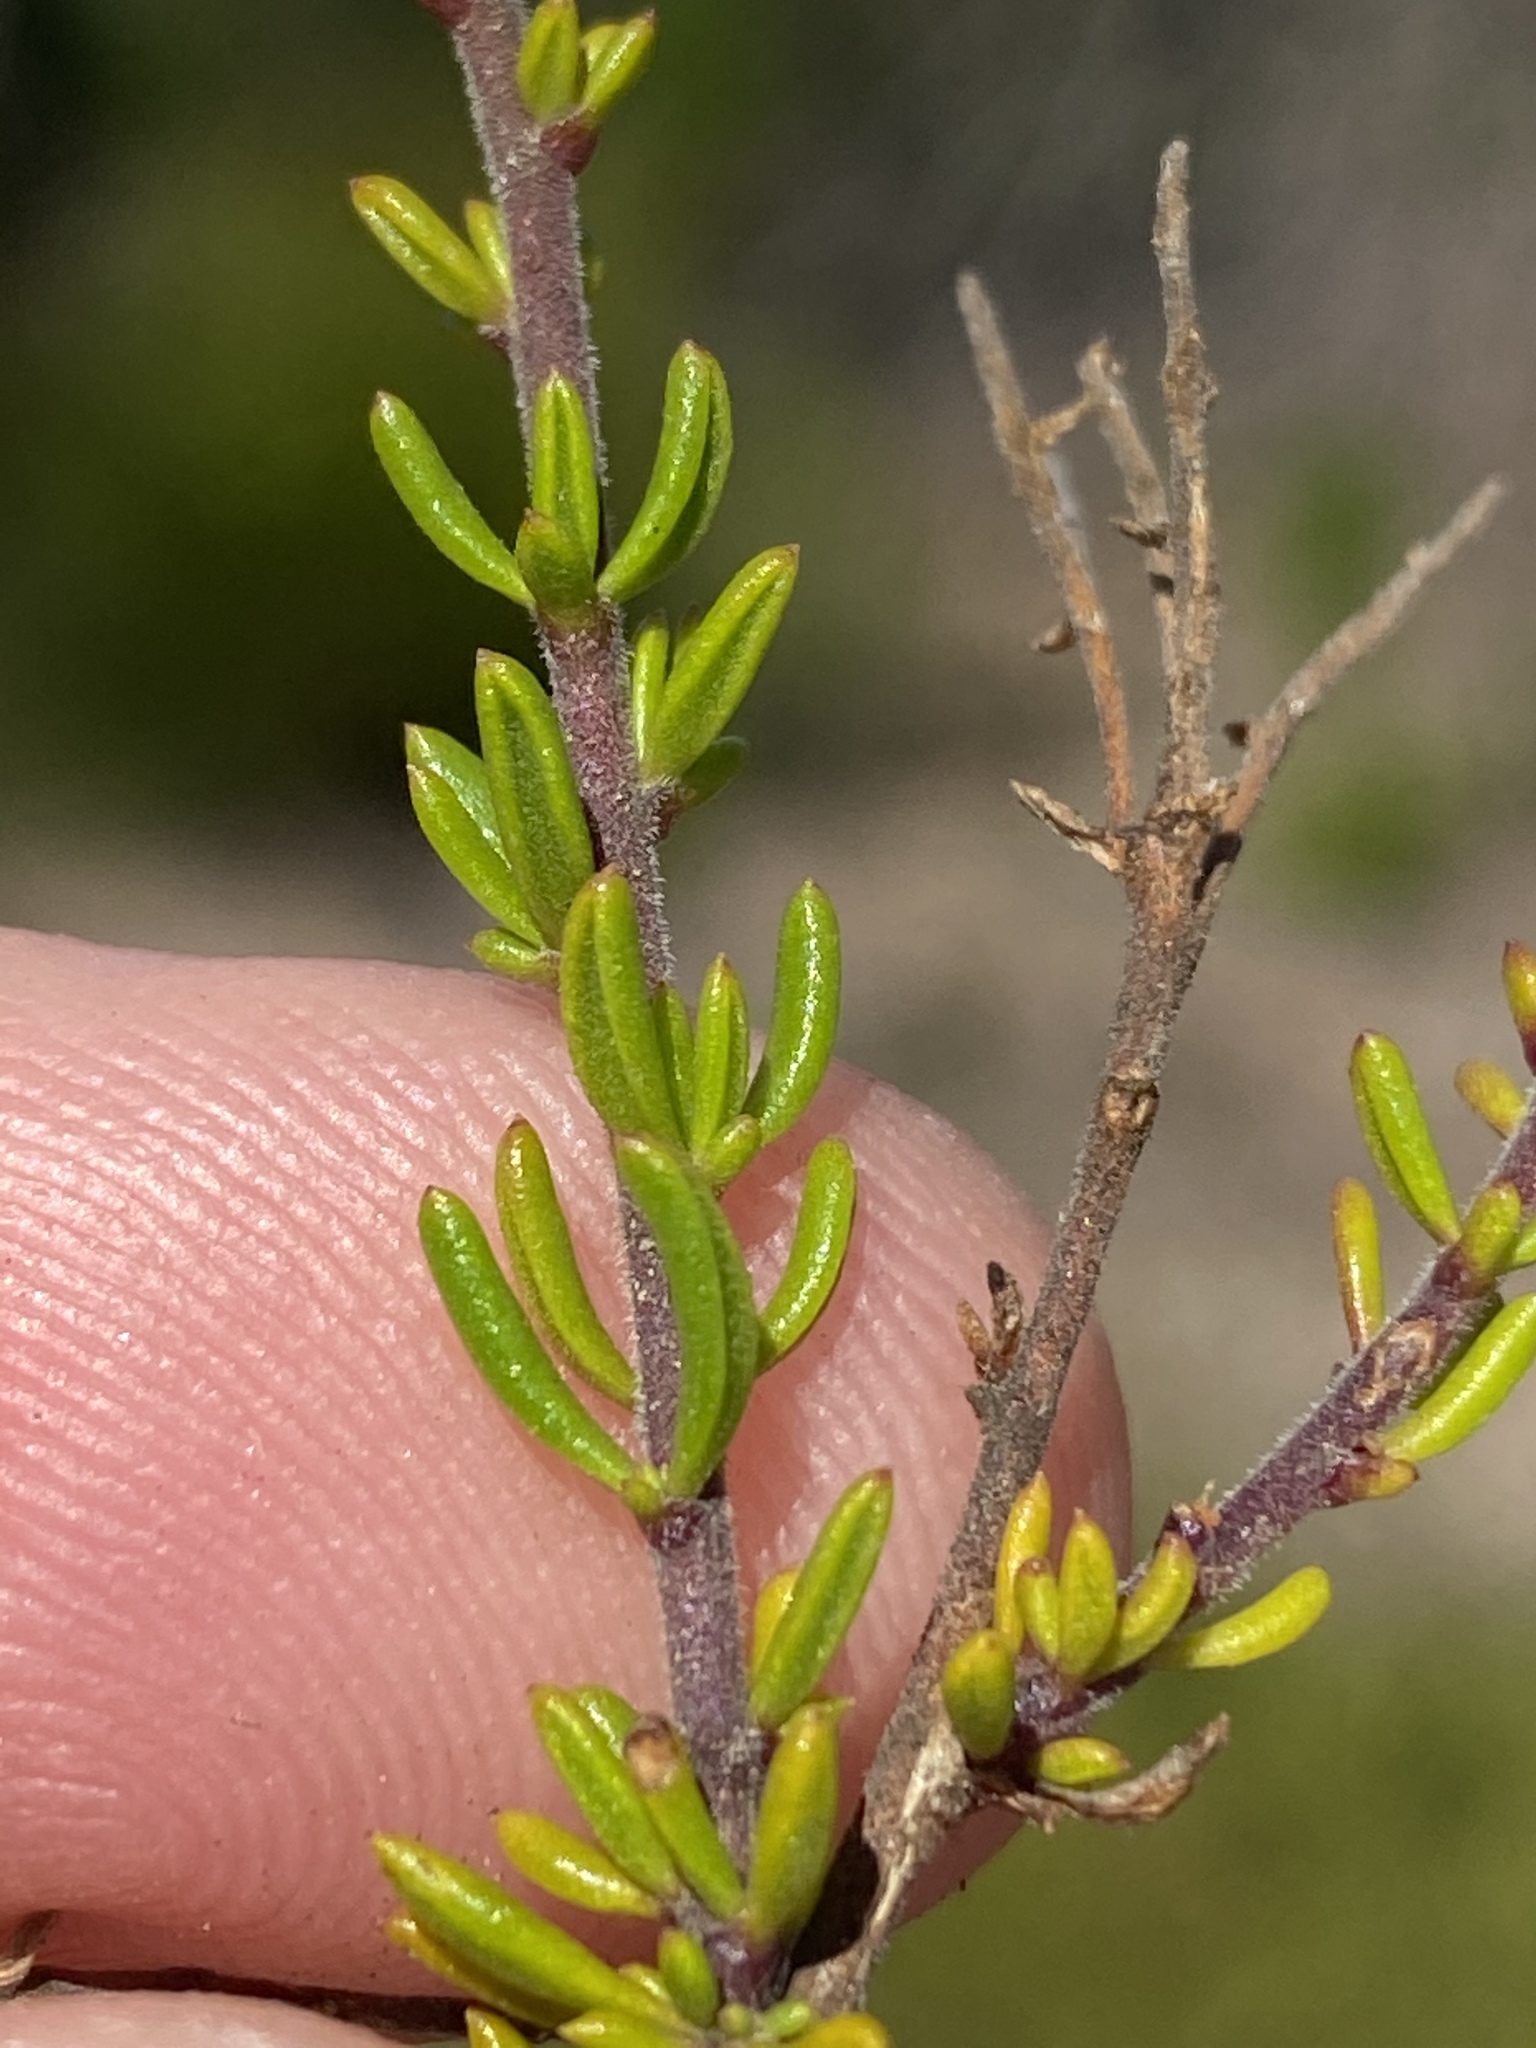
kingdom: Plantae
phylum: Tracheophyta
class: Magnoliopsida
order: Lamiales
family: Scrophulariaceae
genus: Selago
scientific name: Selago glomerata
